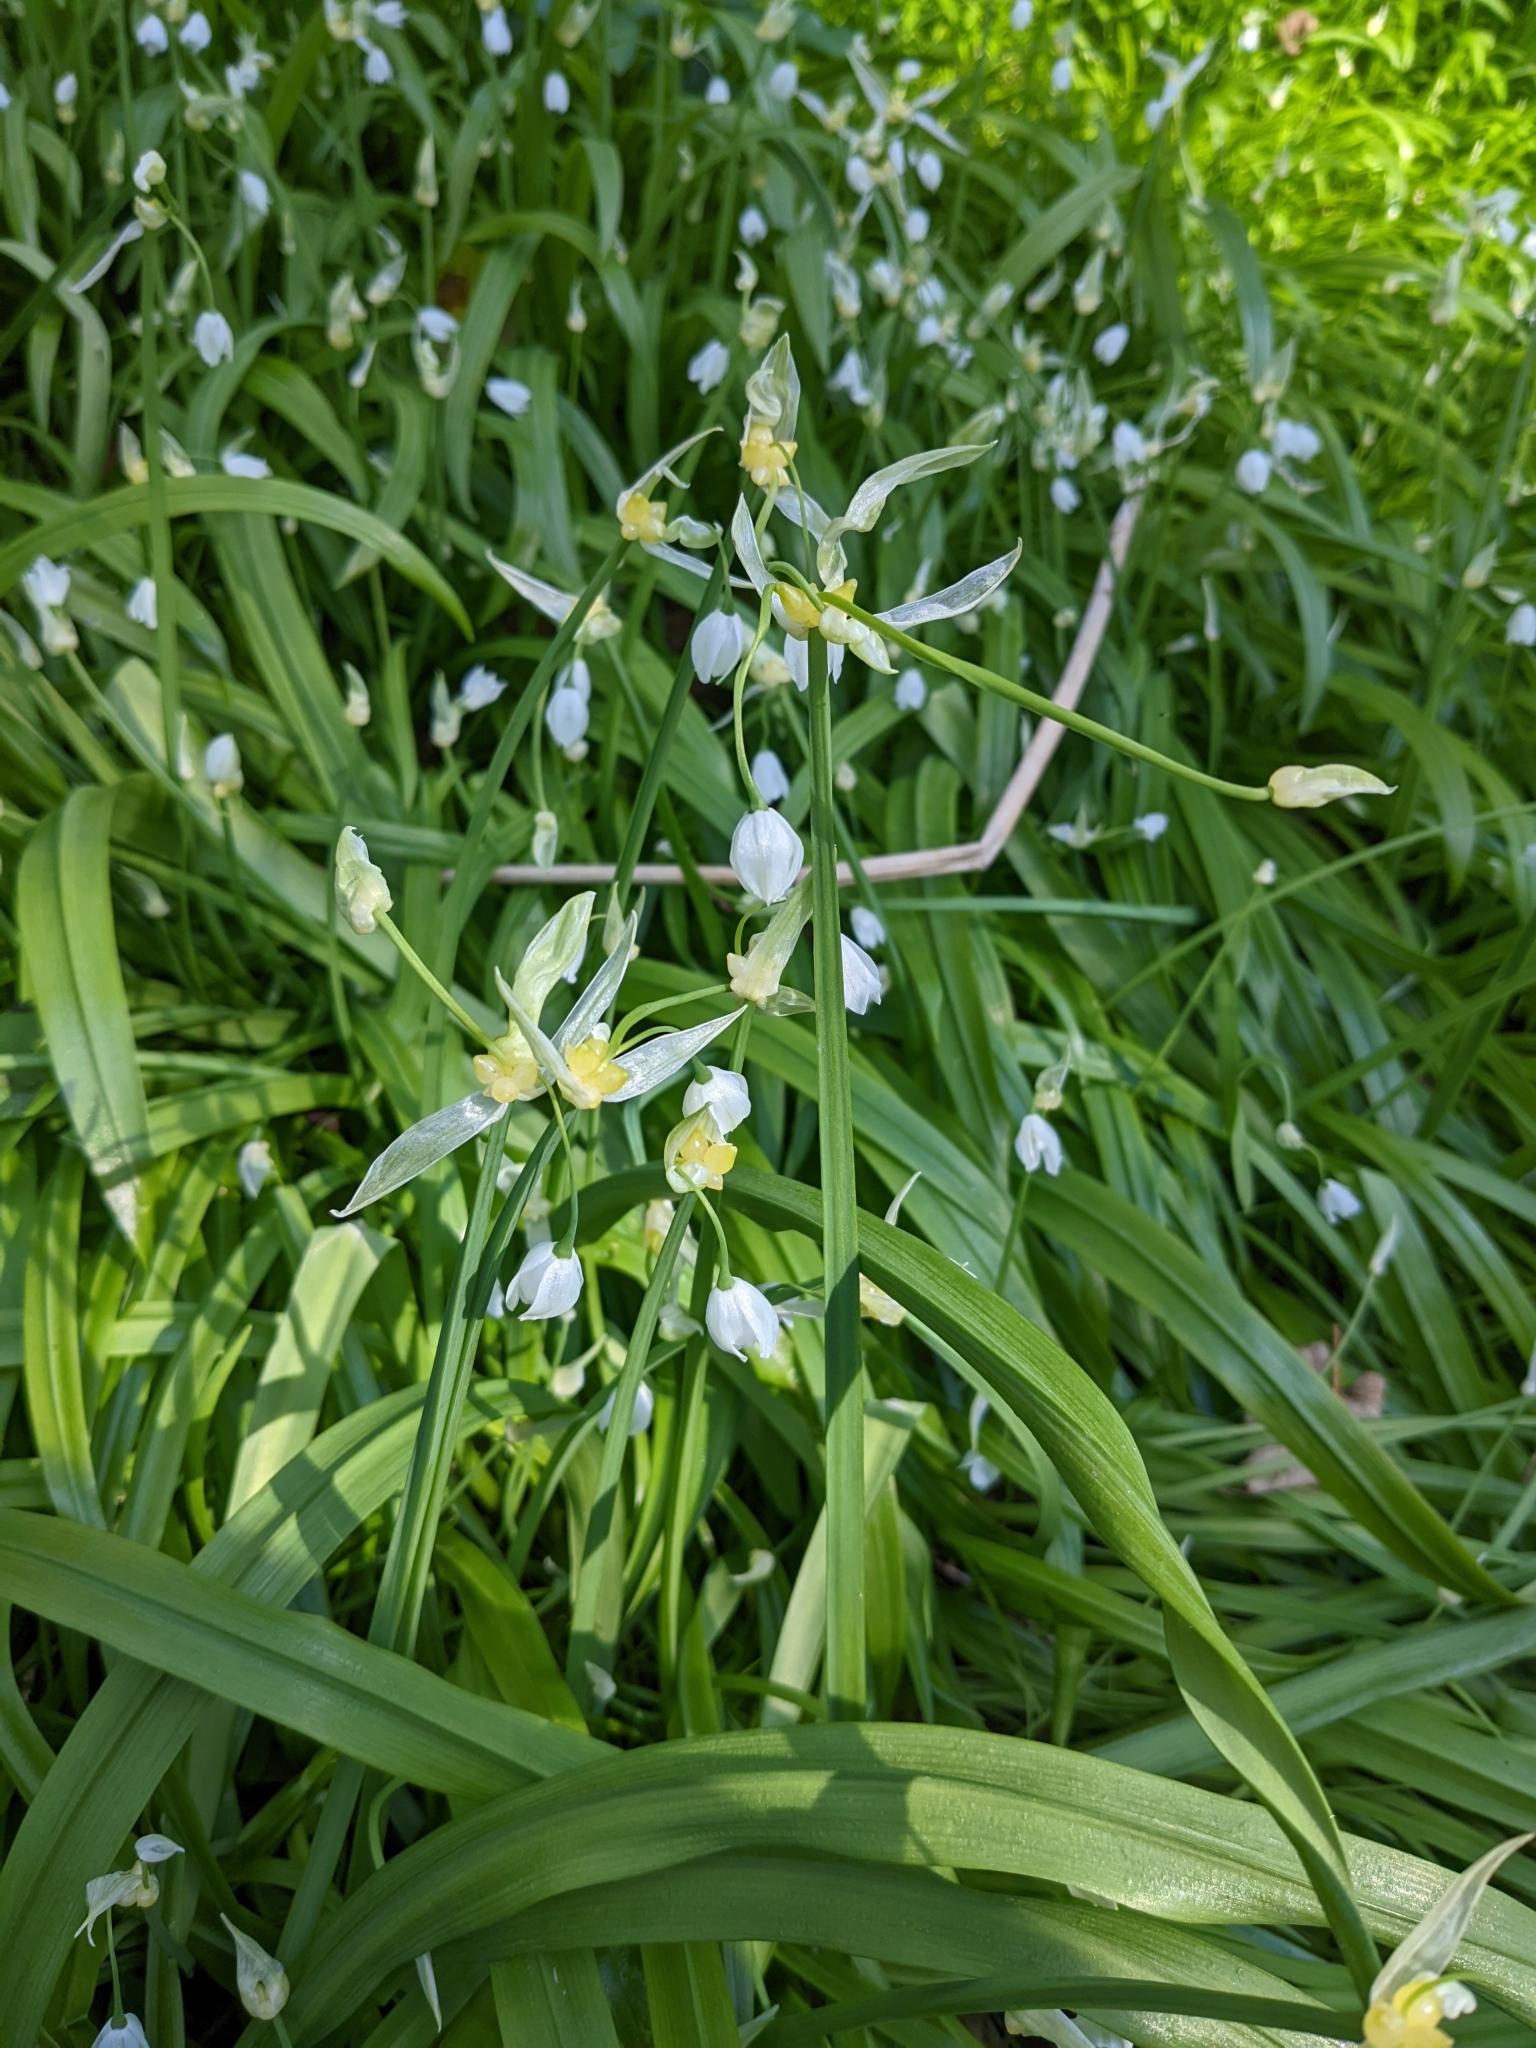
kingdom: Plantae
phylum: Tracheophyta
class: Liliopsida
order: Asparagales
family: Amaryllidaceae
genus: Allium
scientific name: Allium paradoxum
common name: Few-flowered garlic
